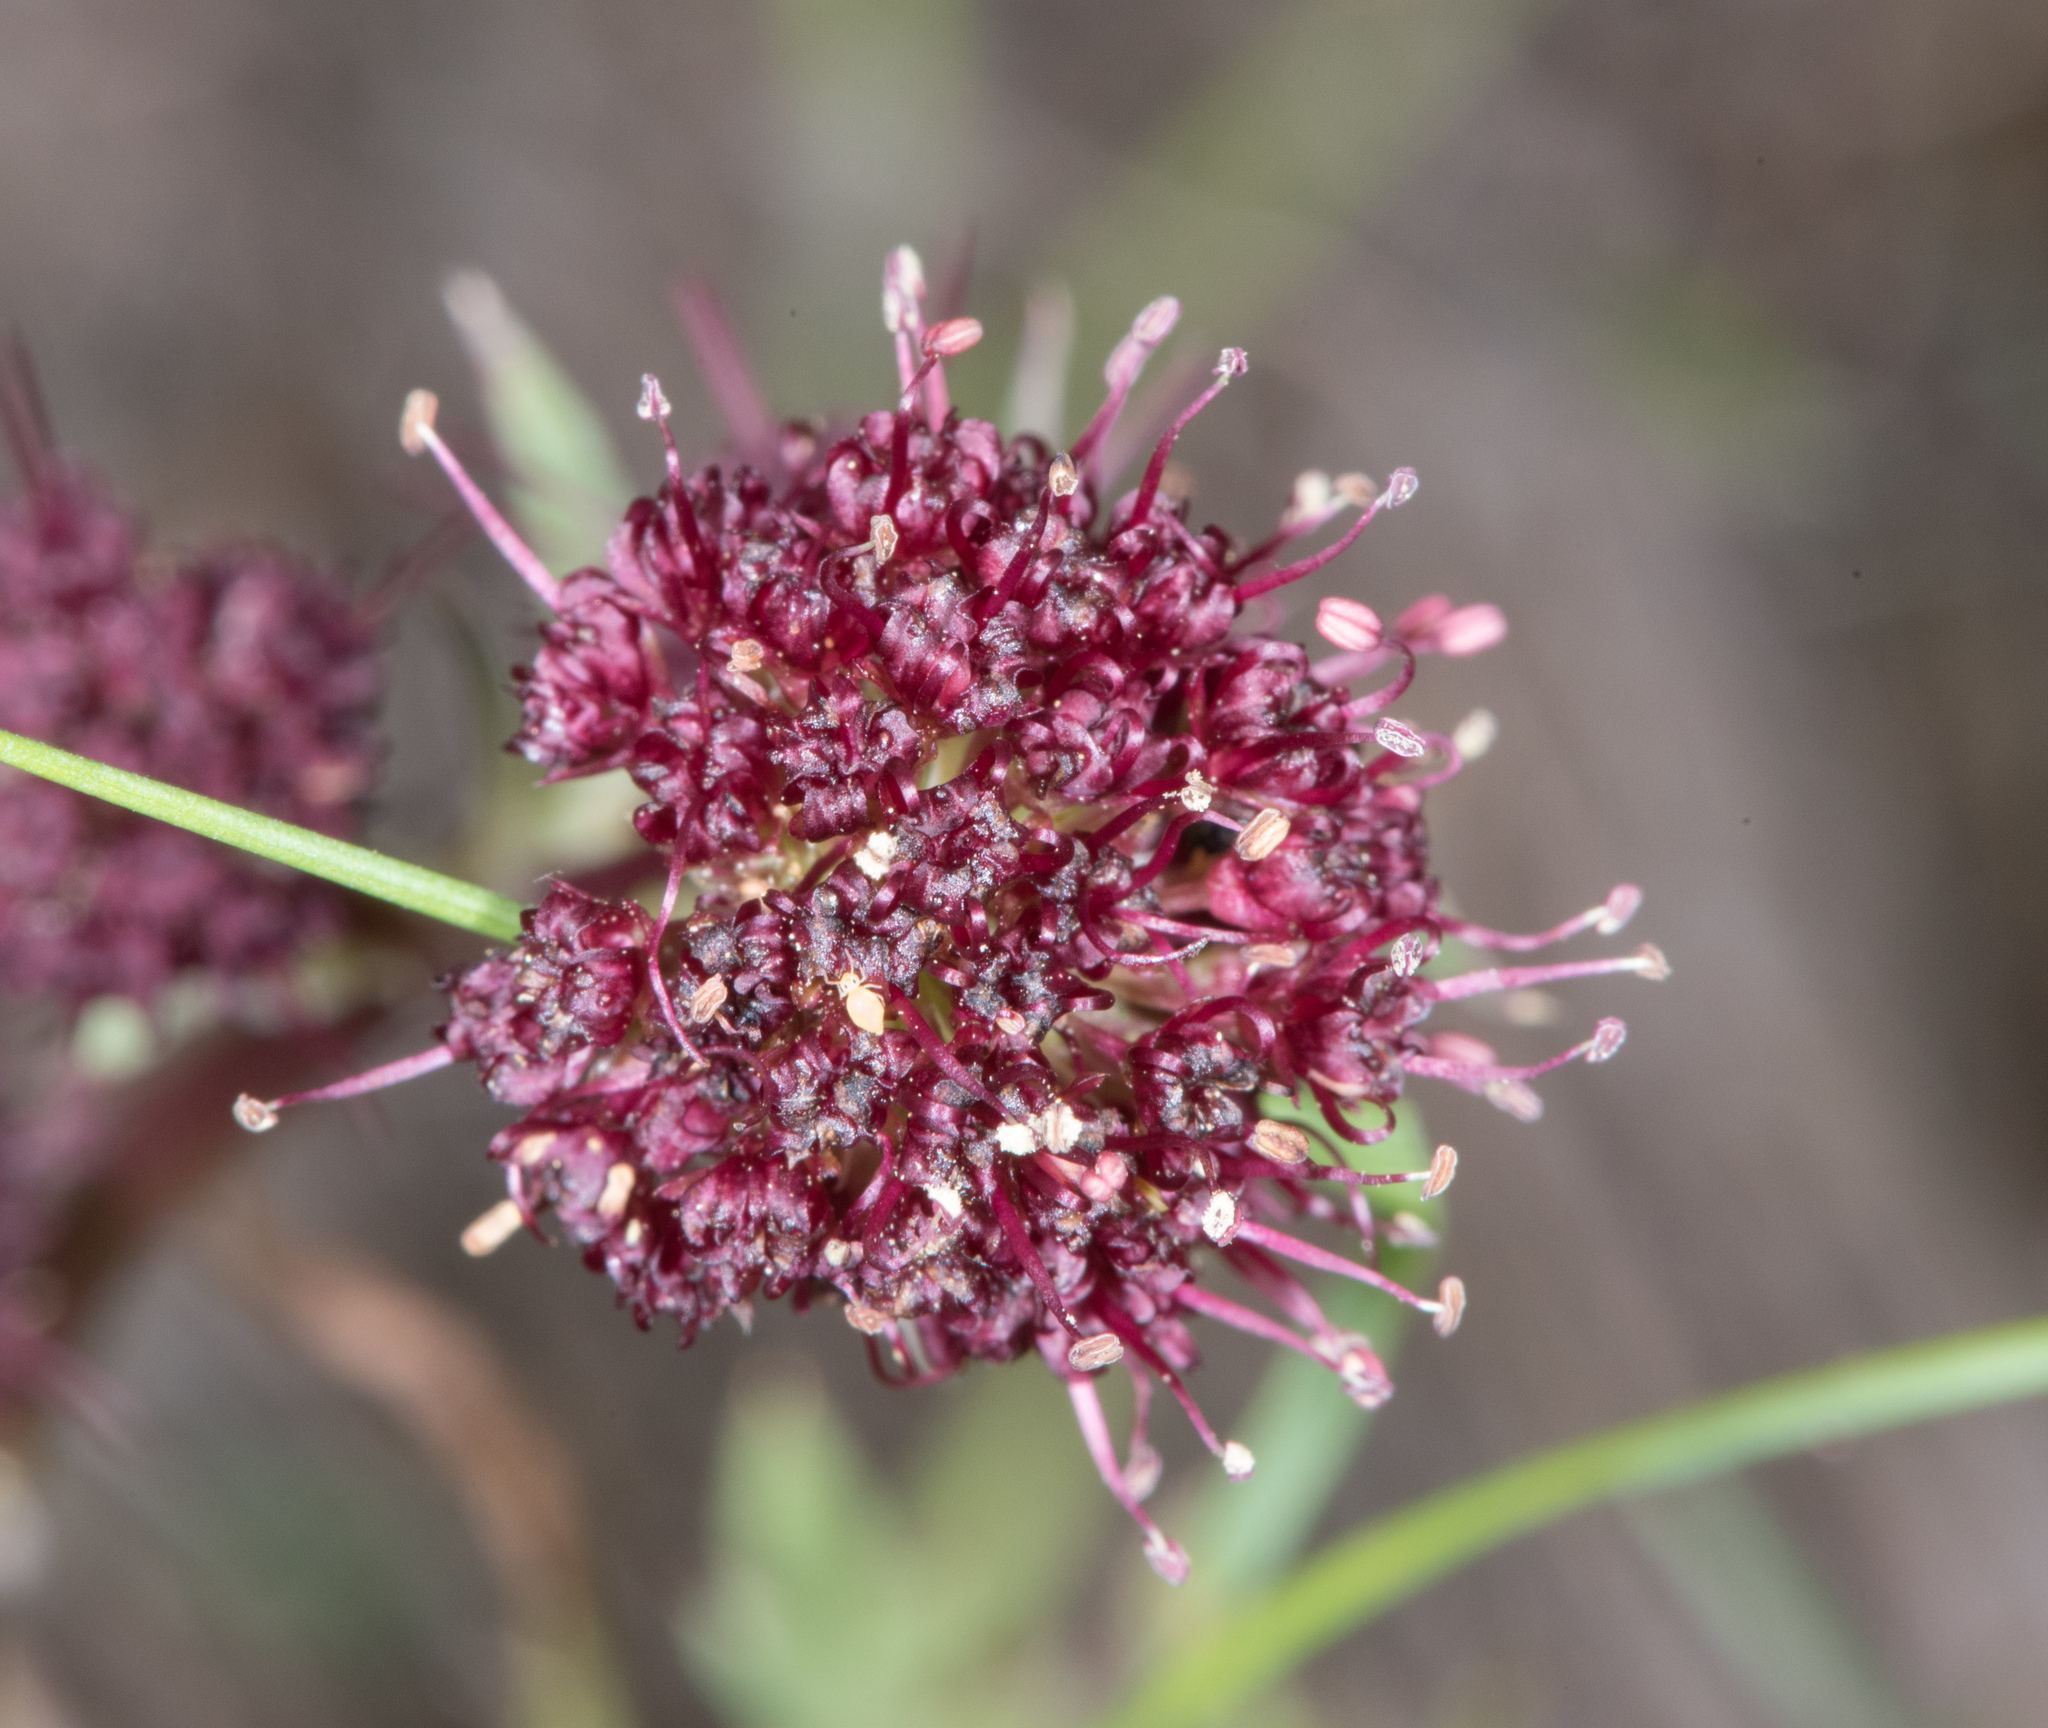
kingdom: Plantae
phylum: Tracheophyta
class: Magnoliopsida
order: Apiales
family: Apiaceae
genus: Sanicula
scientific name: Sanicula bipinnatifida
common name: Shoe-buttons
